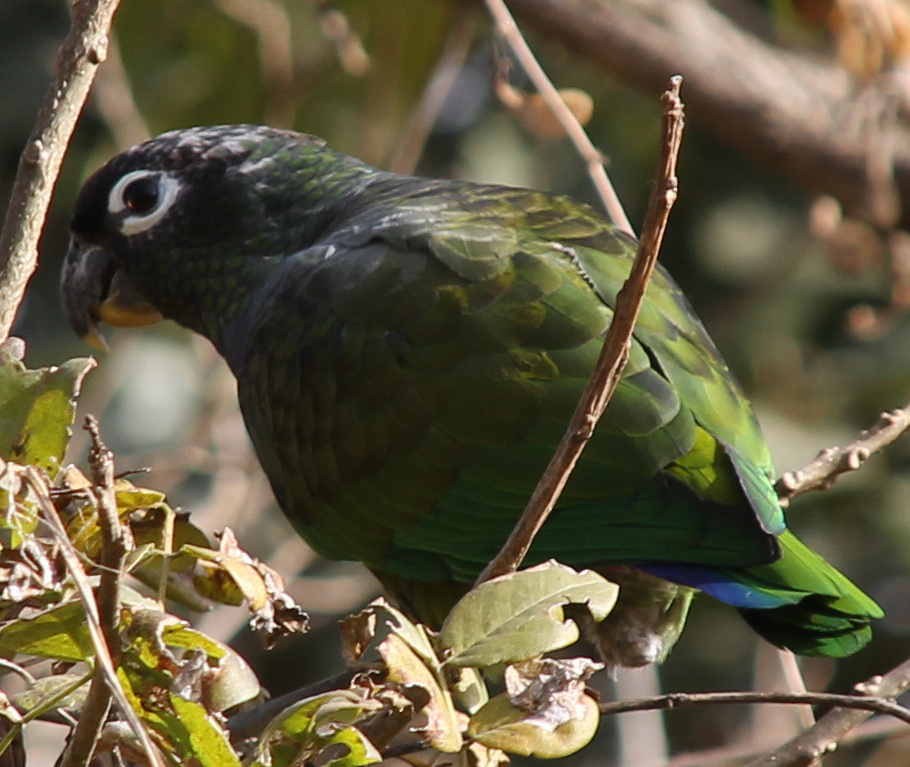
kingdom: Animalia
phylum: Chordata
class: Aves
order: Psittaciformes
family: Psittacidae
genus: Pionus
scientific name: Pionus maximiliani
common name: Scaly-headed parrot
